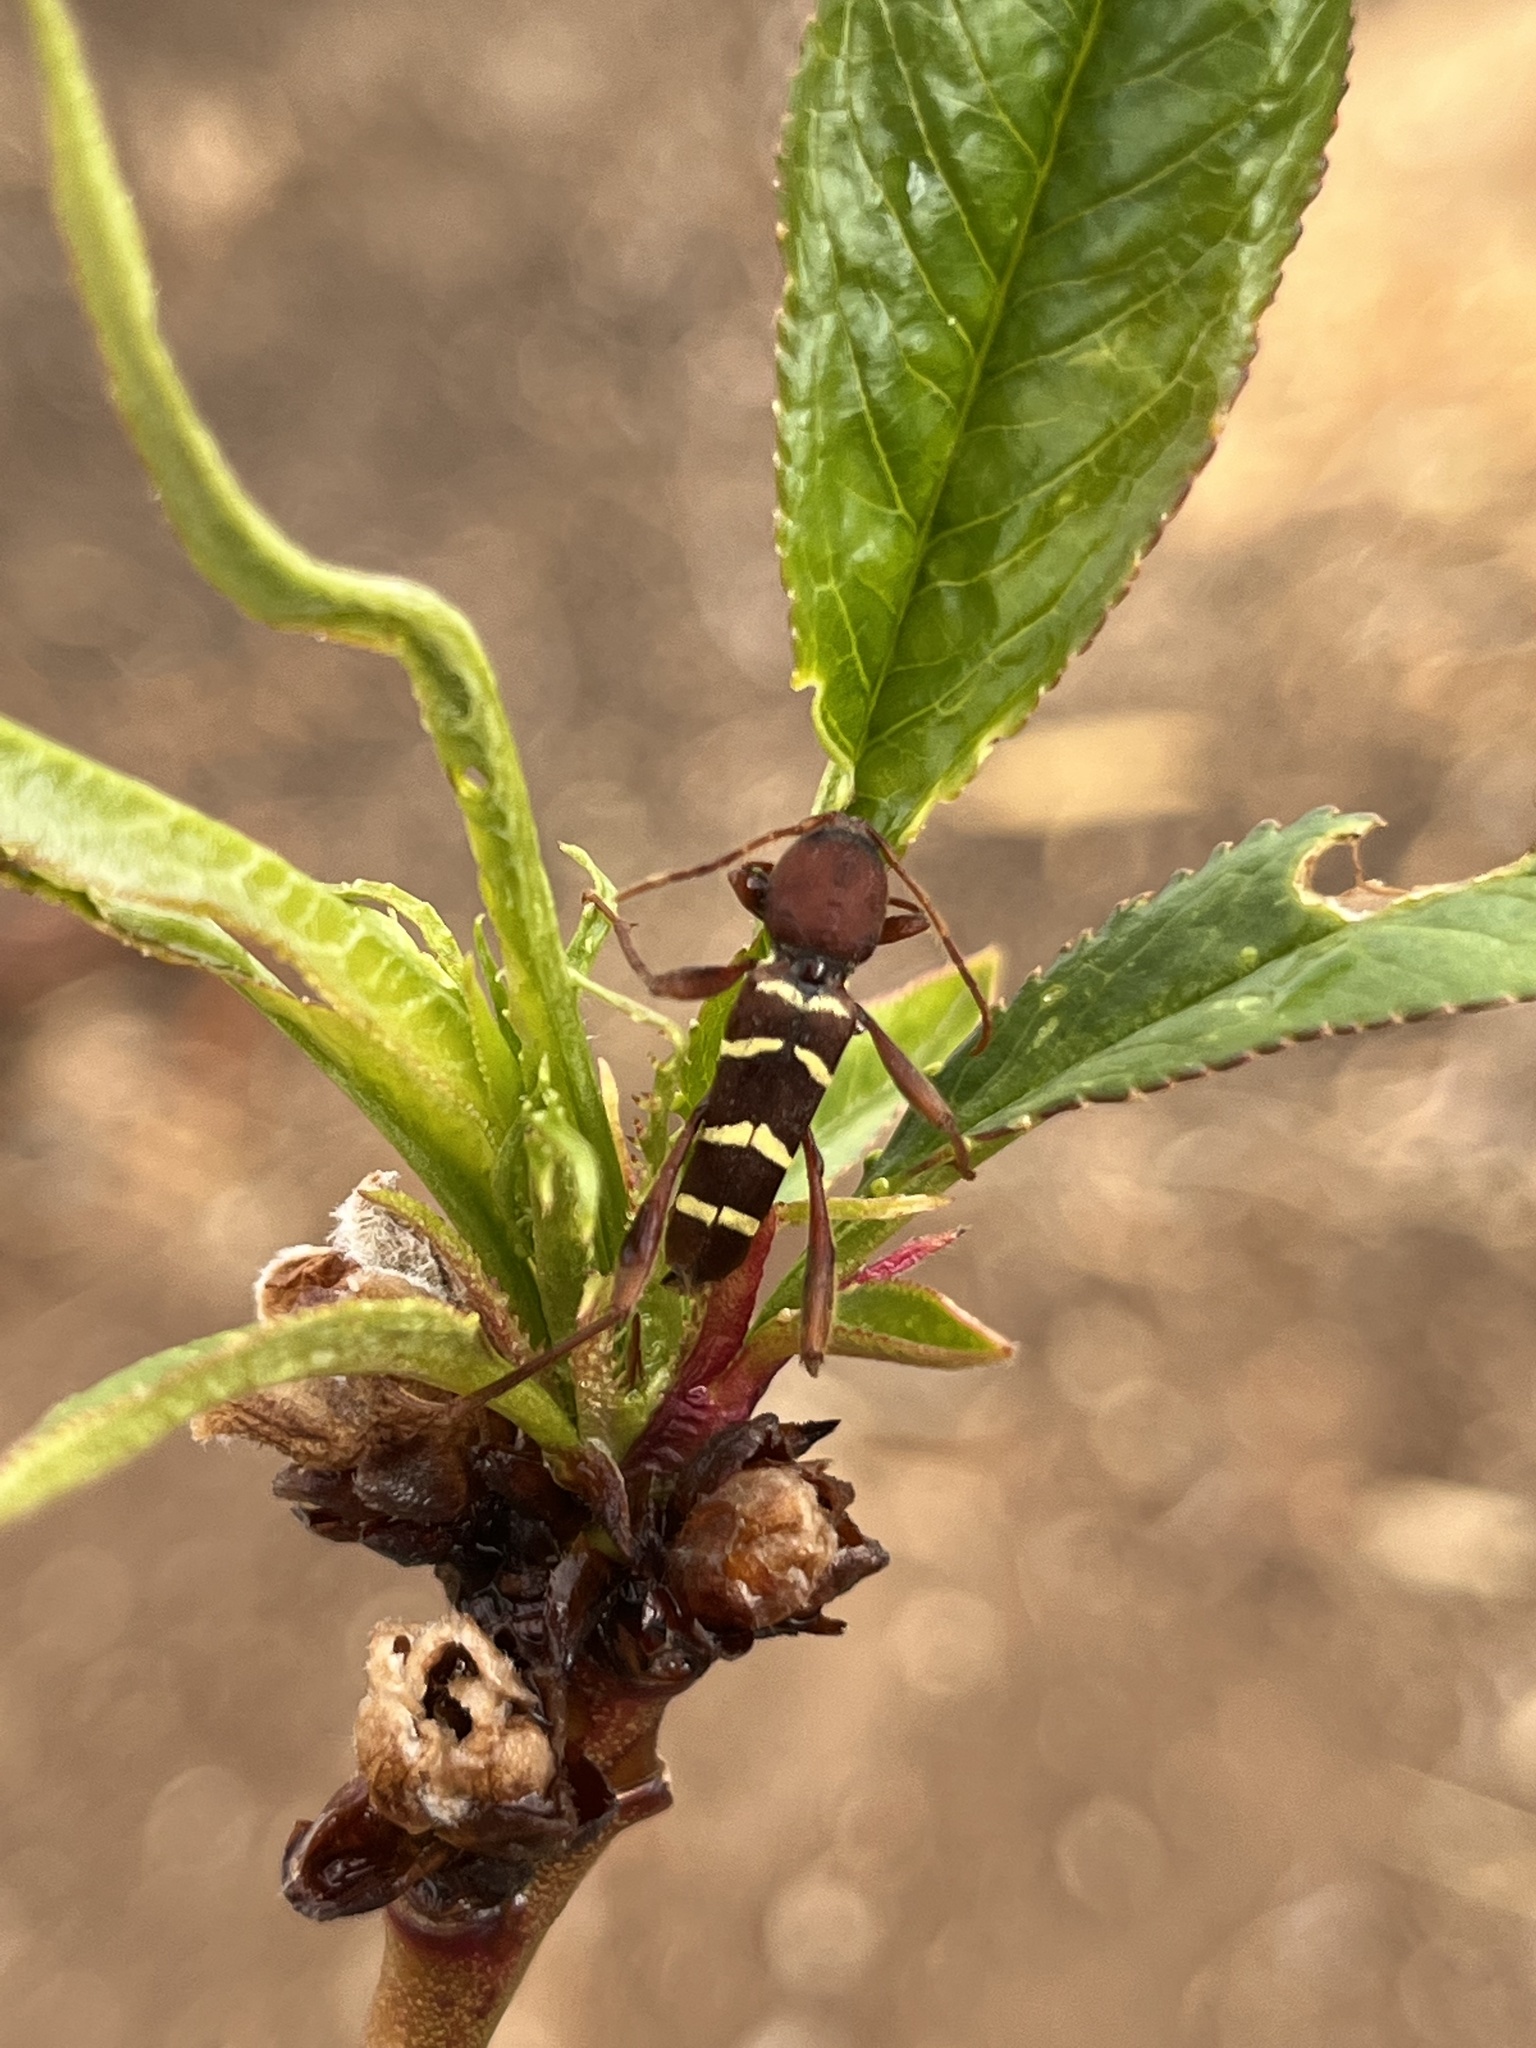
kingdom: Animalia
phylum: Arthropoda
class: Insecta
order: Coleoptera
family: Cerambycidae
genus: Neoclytus
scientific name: Neoclytus acuminatus
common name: Read-headed ash borer
